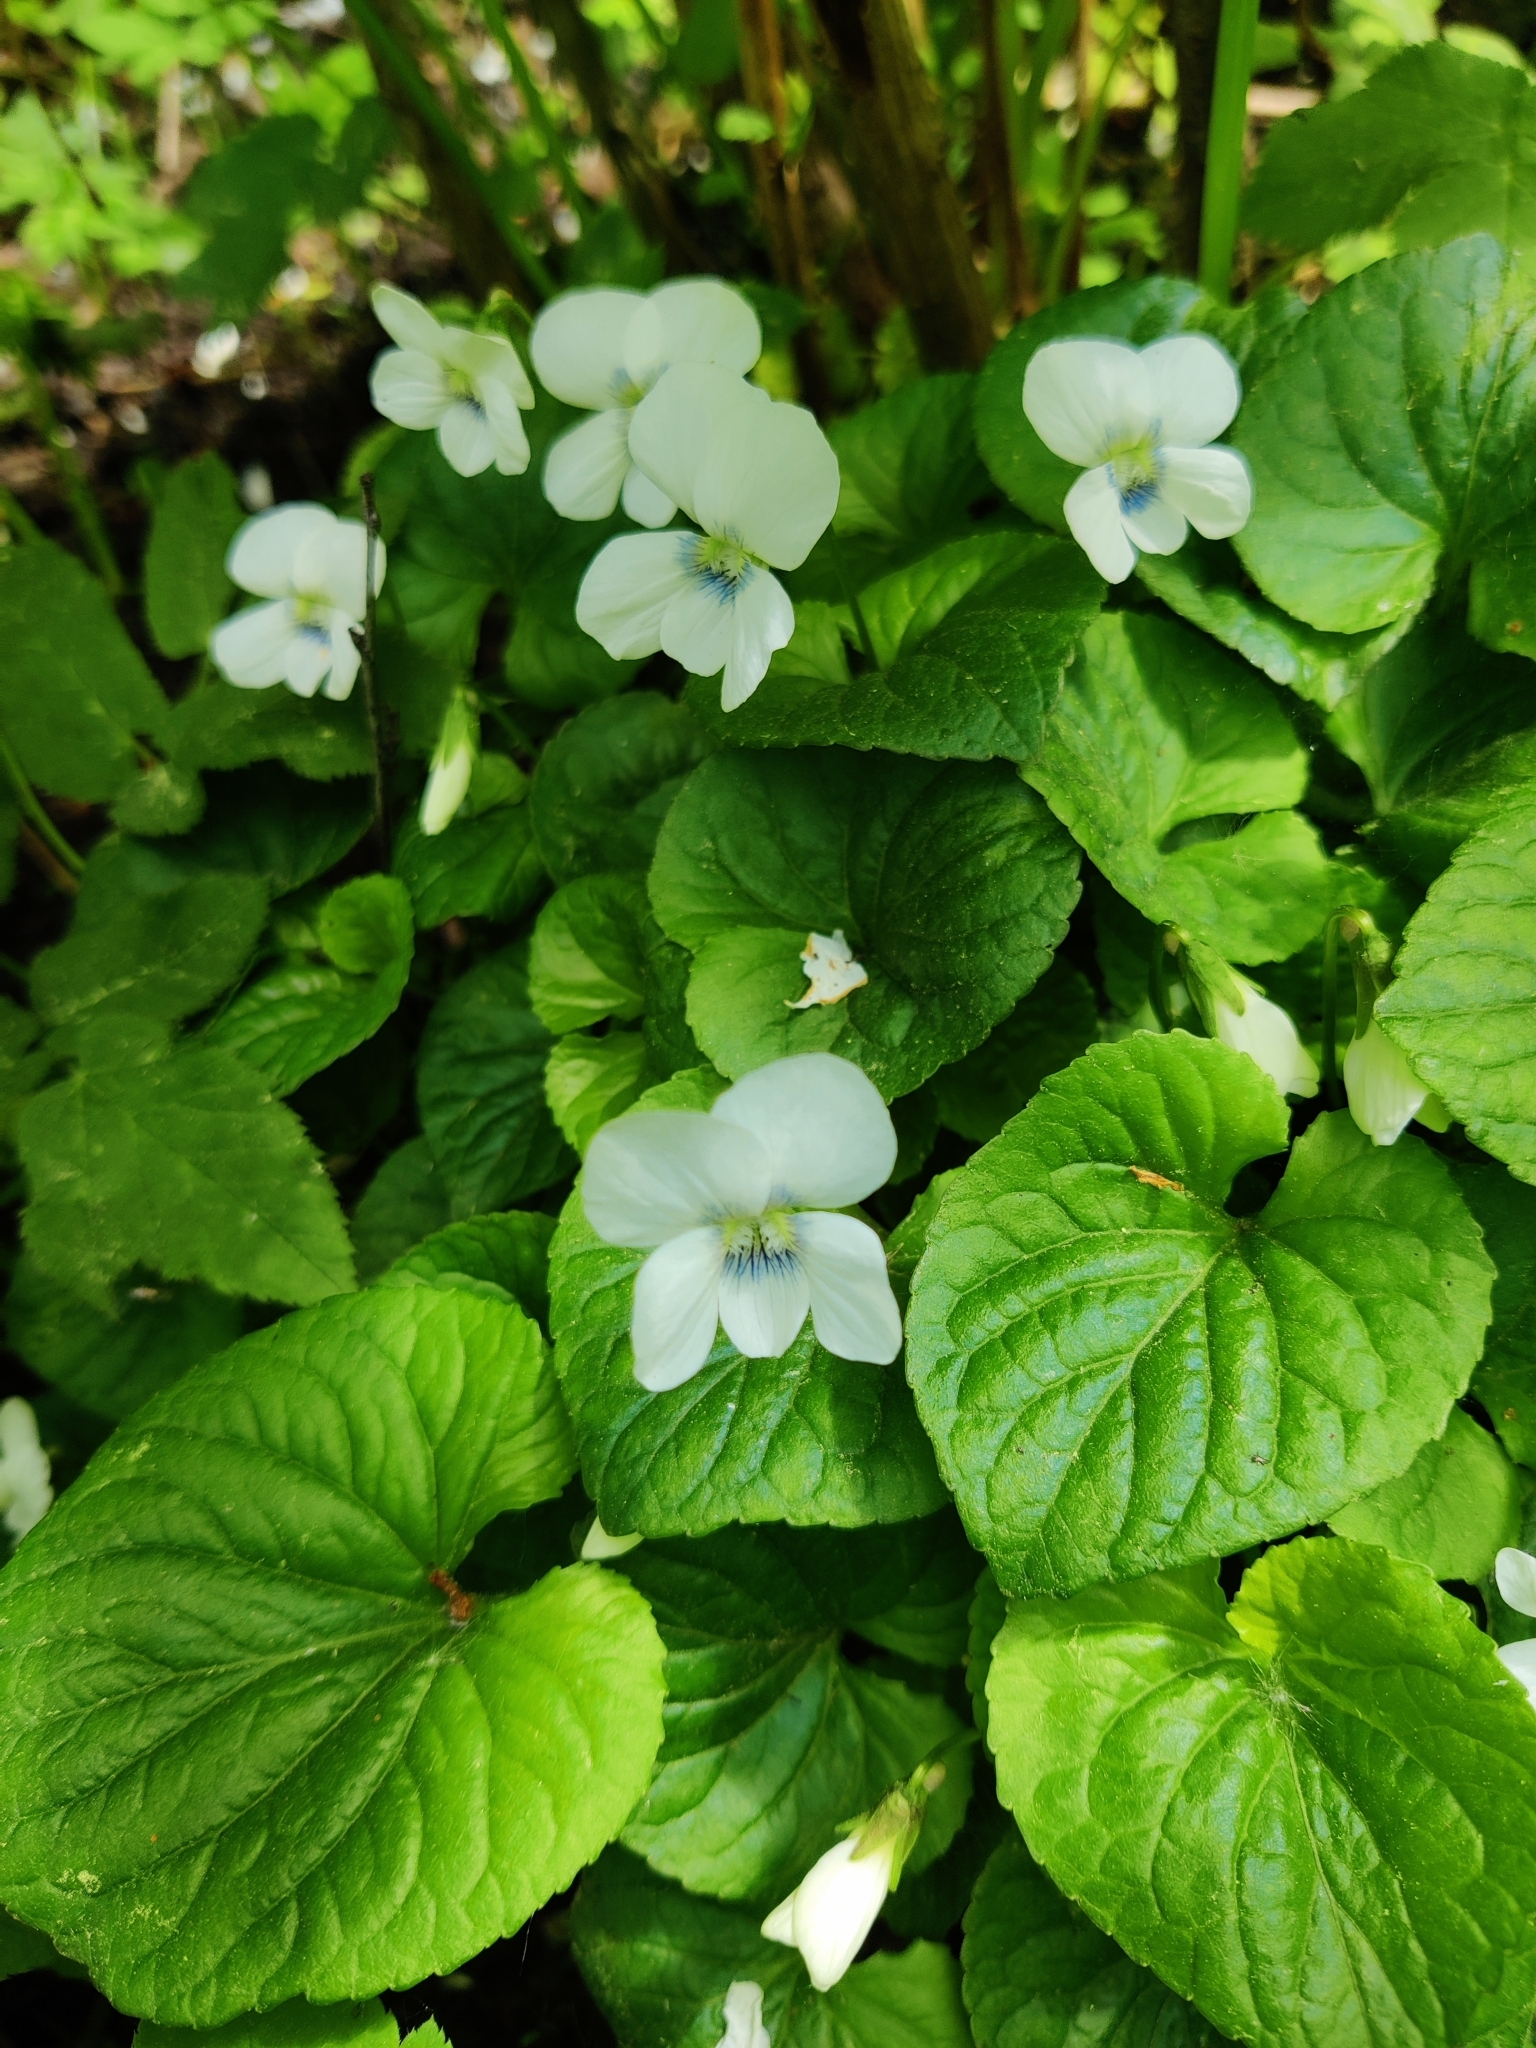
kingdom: Plantae
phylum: Tracheophyta
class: Magnoliopsida
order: Malpighiales
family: Violaceae
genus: Viola
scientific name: Viola sororia
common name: Dooryard violet
